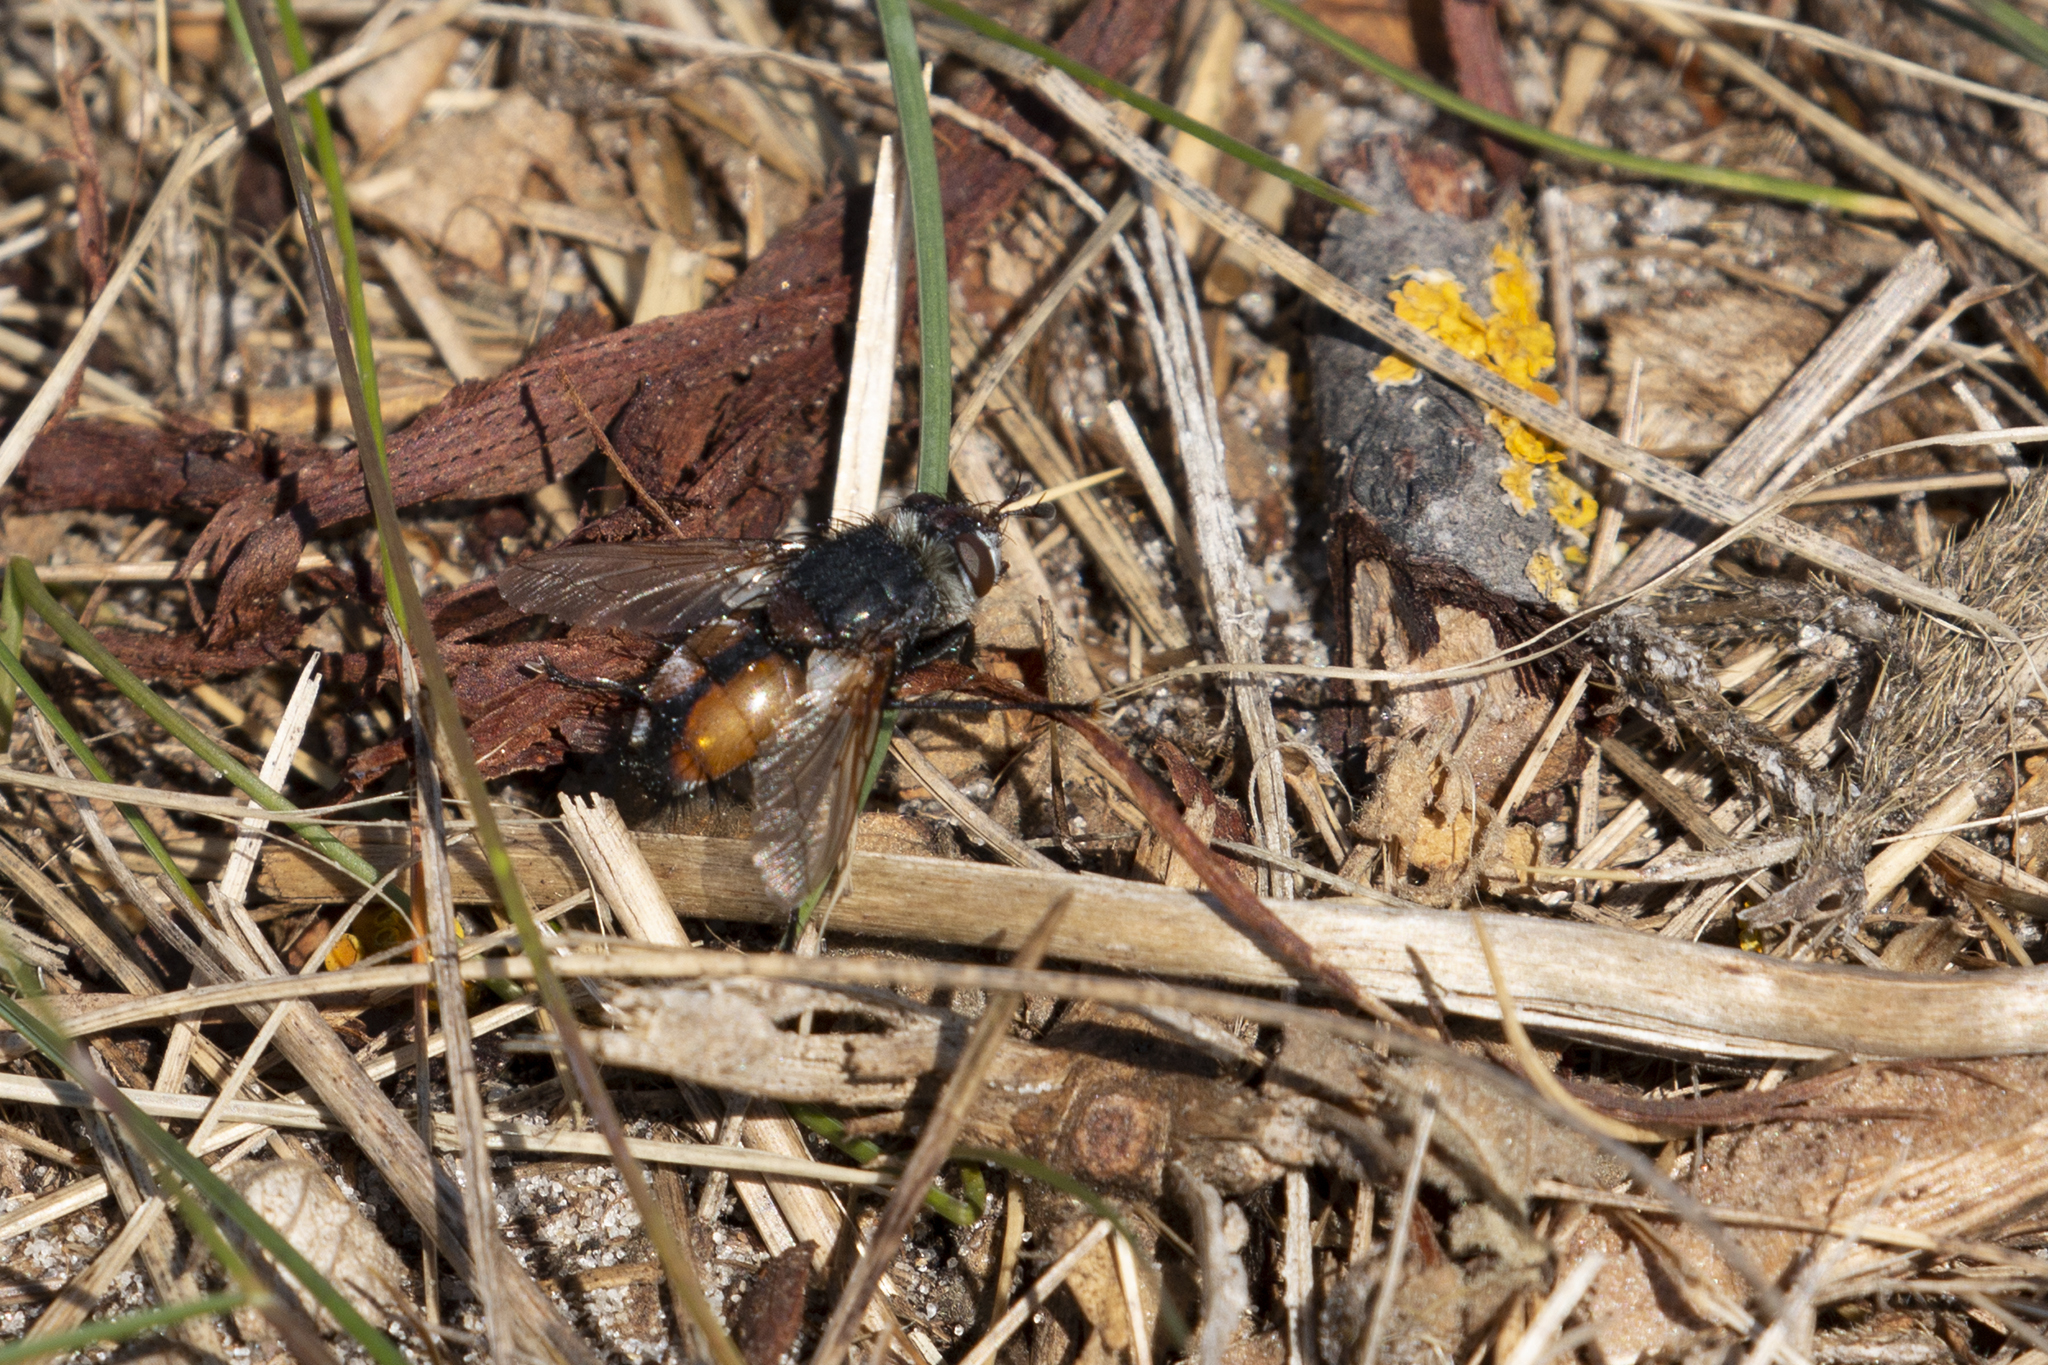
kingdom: Animalia
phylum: Arthropoda
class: Insecta
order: Diptera
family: Tachinidae
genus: Peleteria
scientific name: Peleteria rubescens
